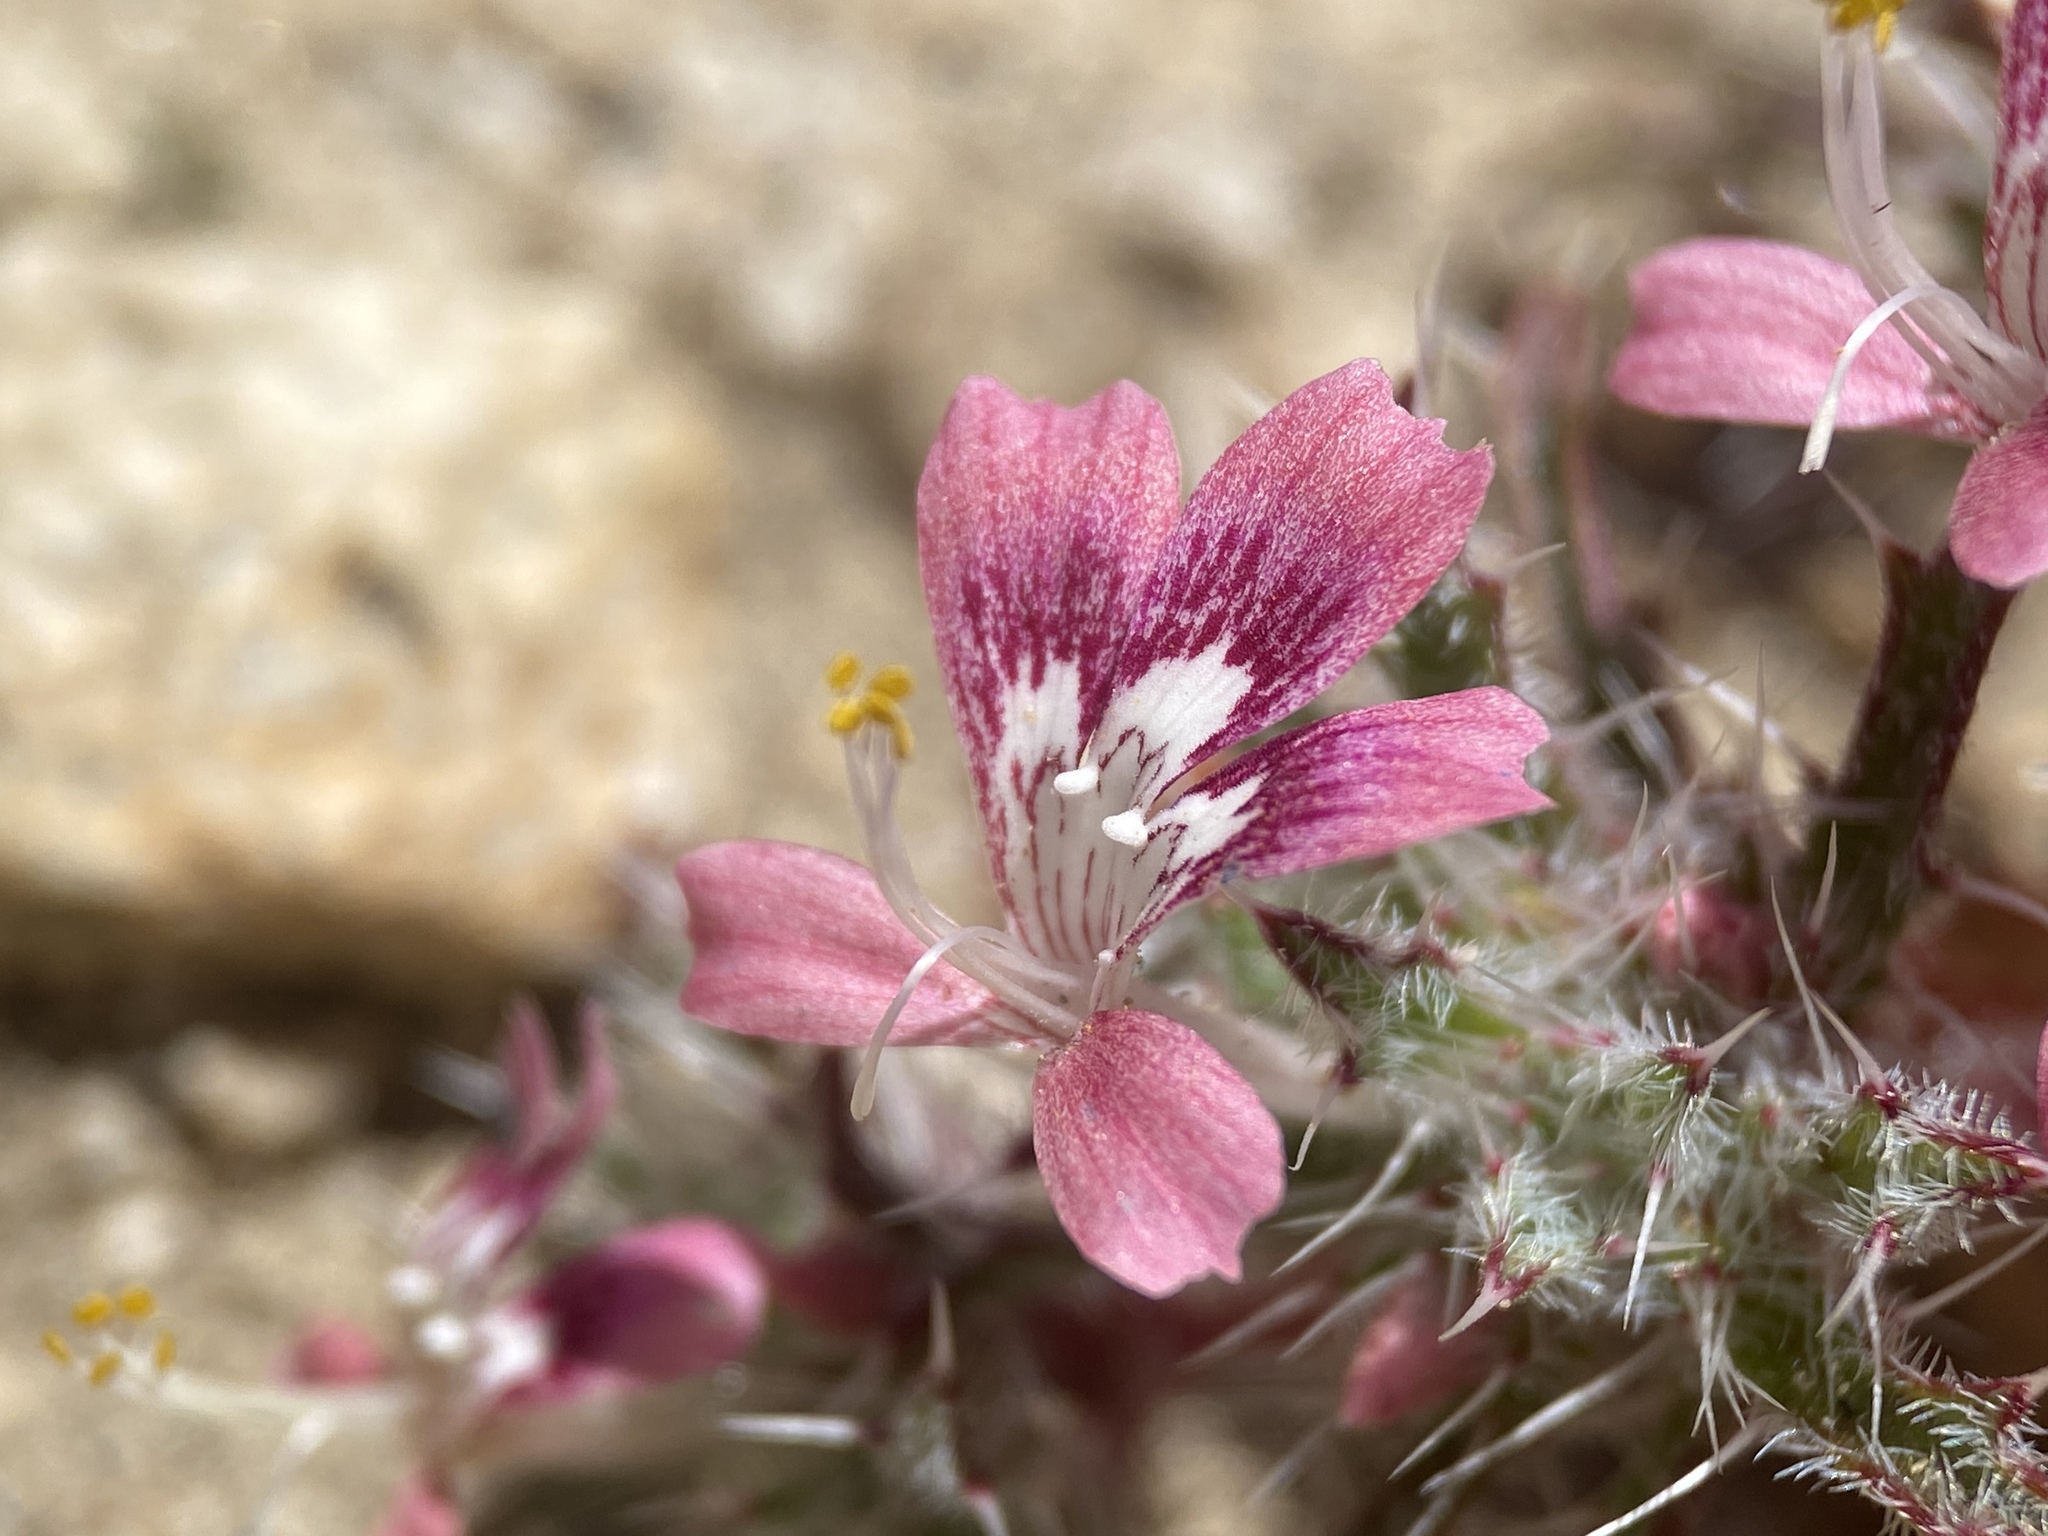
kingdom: Plantae
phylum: Tracheophyta
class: Magnoliopsida
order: Ericales
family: Polemoniaceae
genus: Loeseliastrum
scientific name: Loeseliastrum matthewsii
